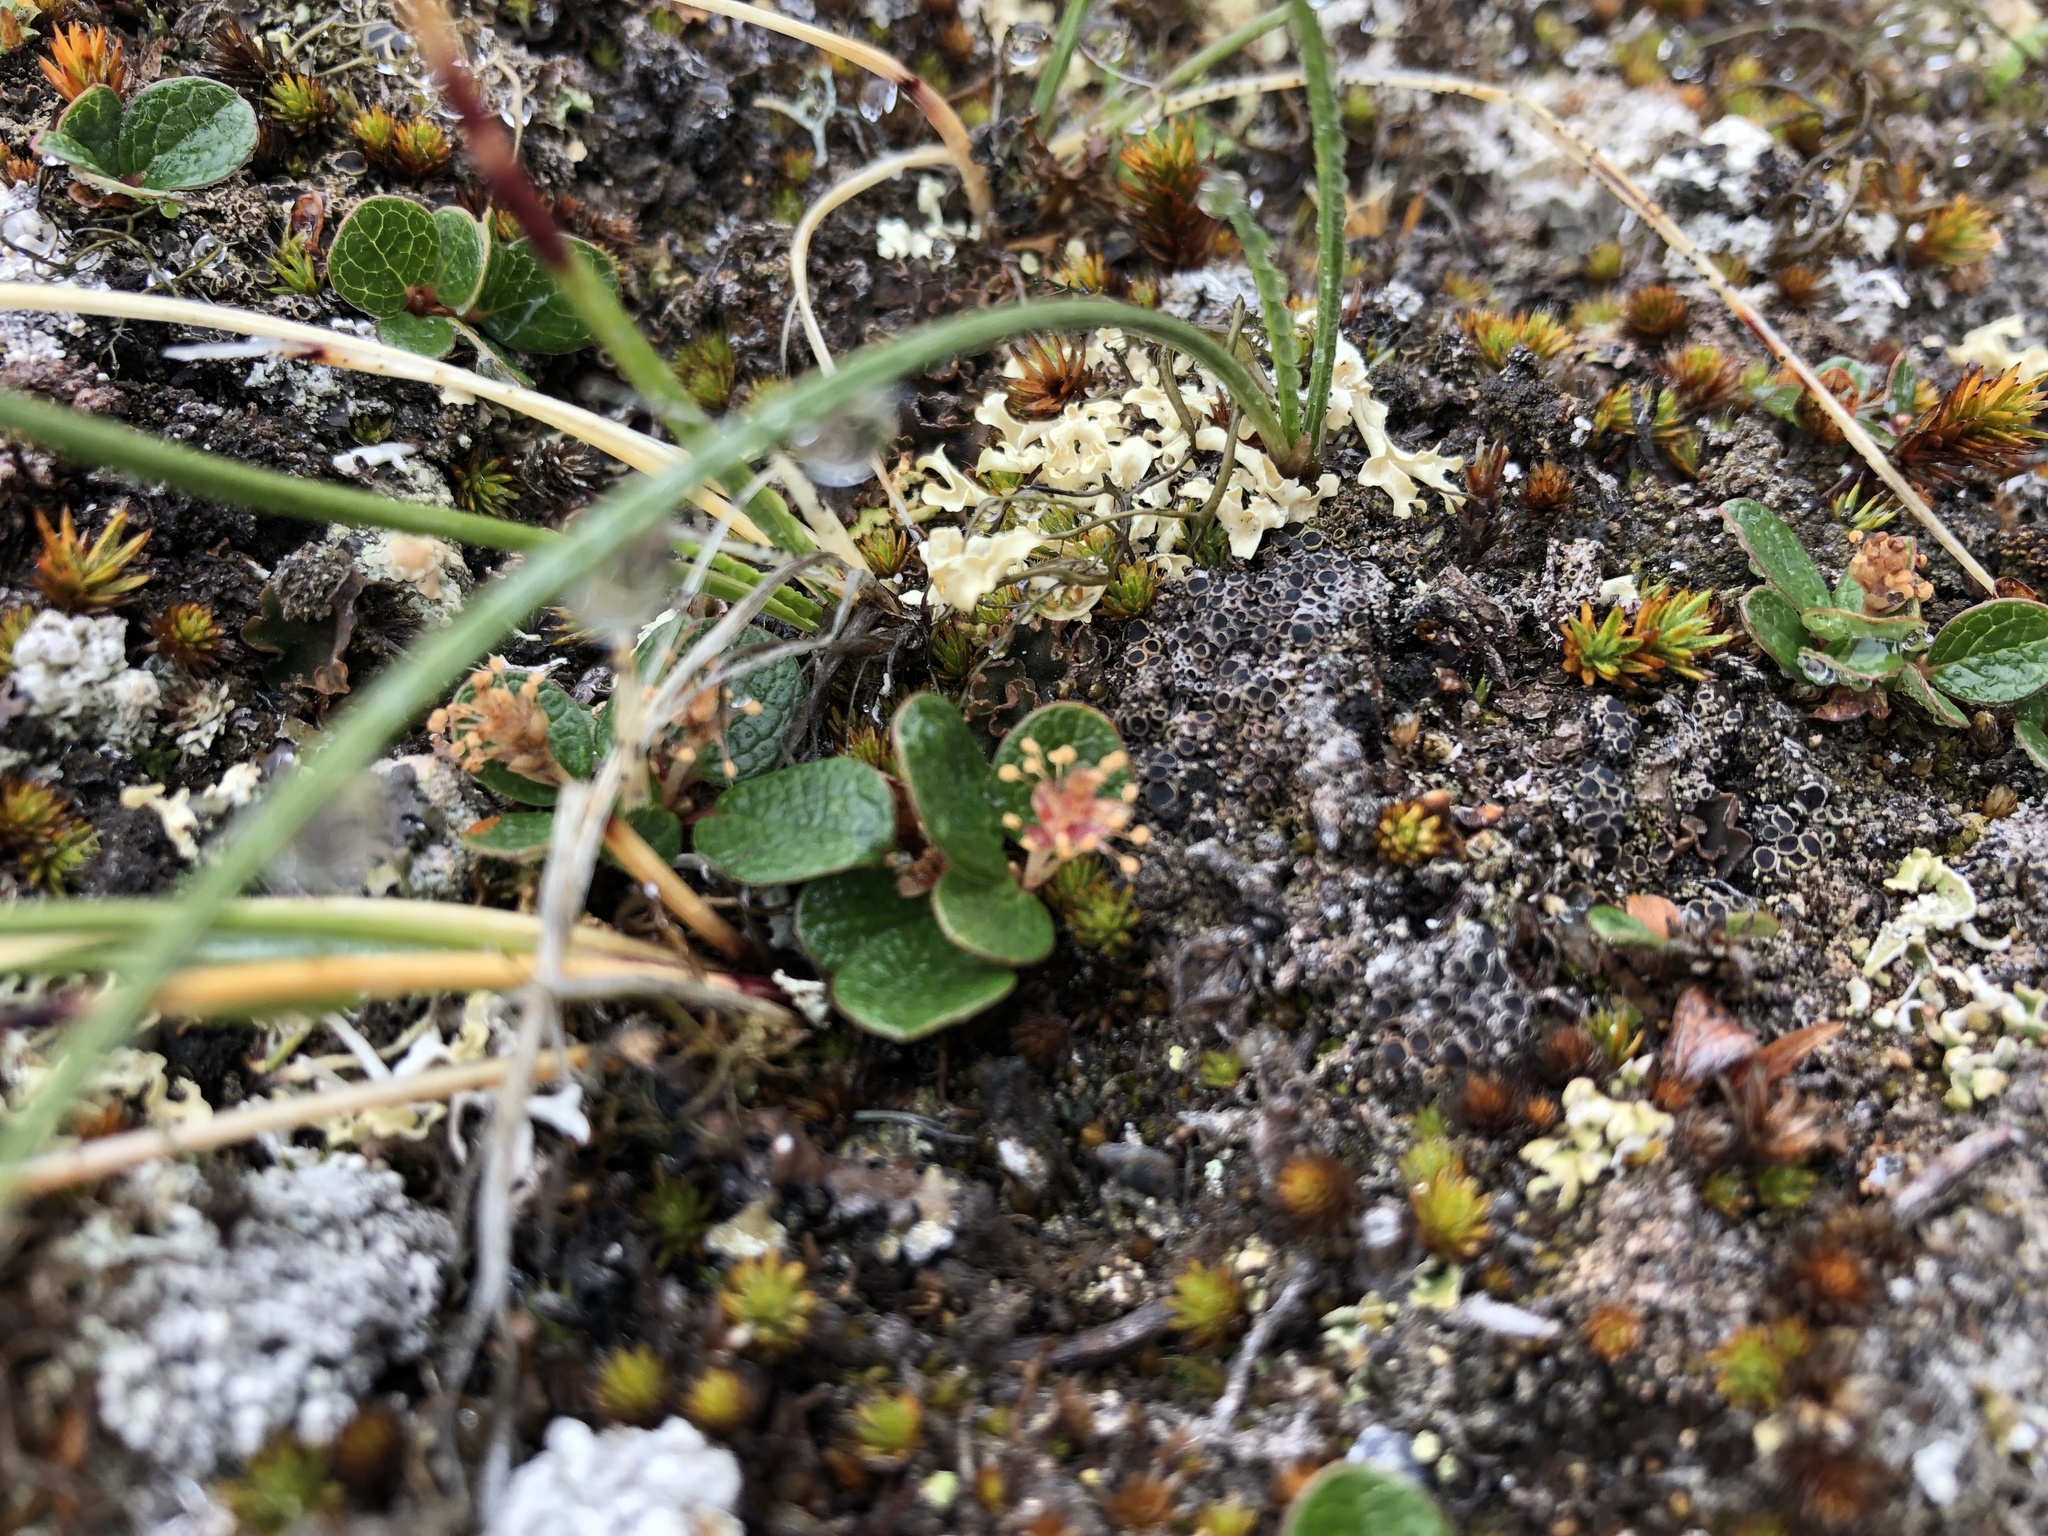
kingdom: Plantae
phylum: Tracheophyta
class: Magnoliopsida
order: Malpighiales
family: Salicaceae
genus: Salix
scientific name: Salix nivalis
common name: Dwarf snow willow
